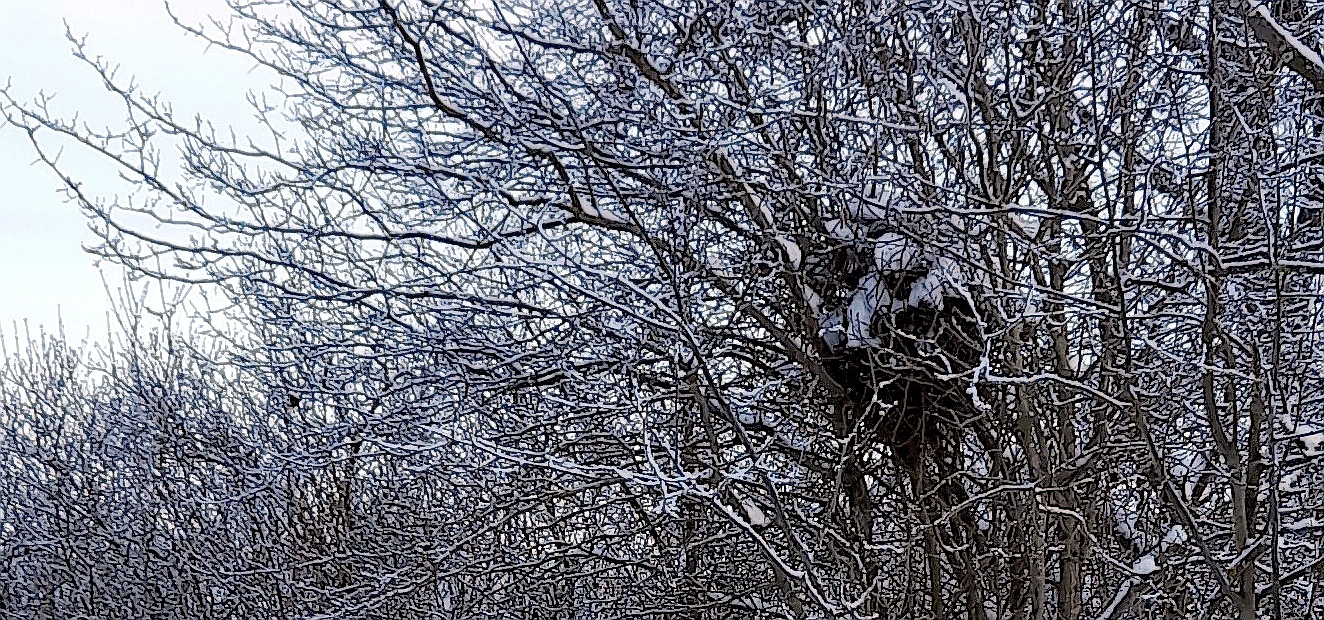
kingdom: Animalia
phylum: Chordata
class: Aves
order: Passeriformes
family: Corvidae
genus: Pica
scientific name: Pica pica
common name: Eurasian magpie
